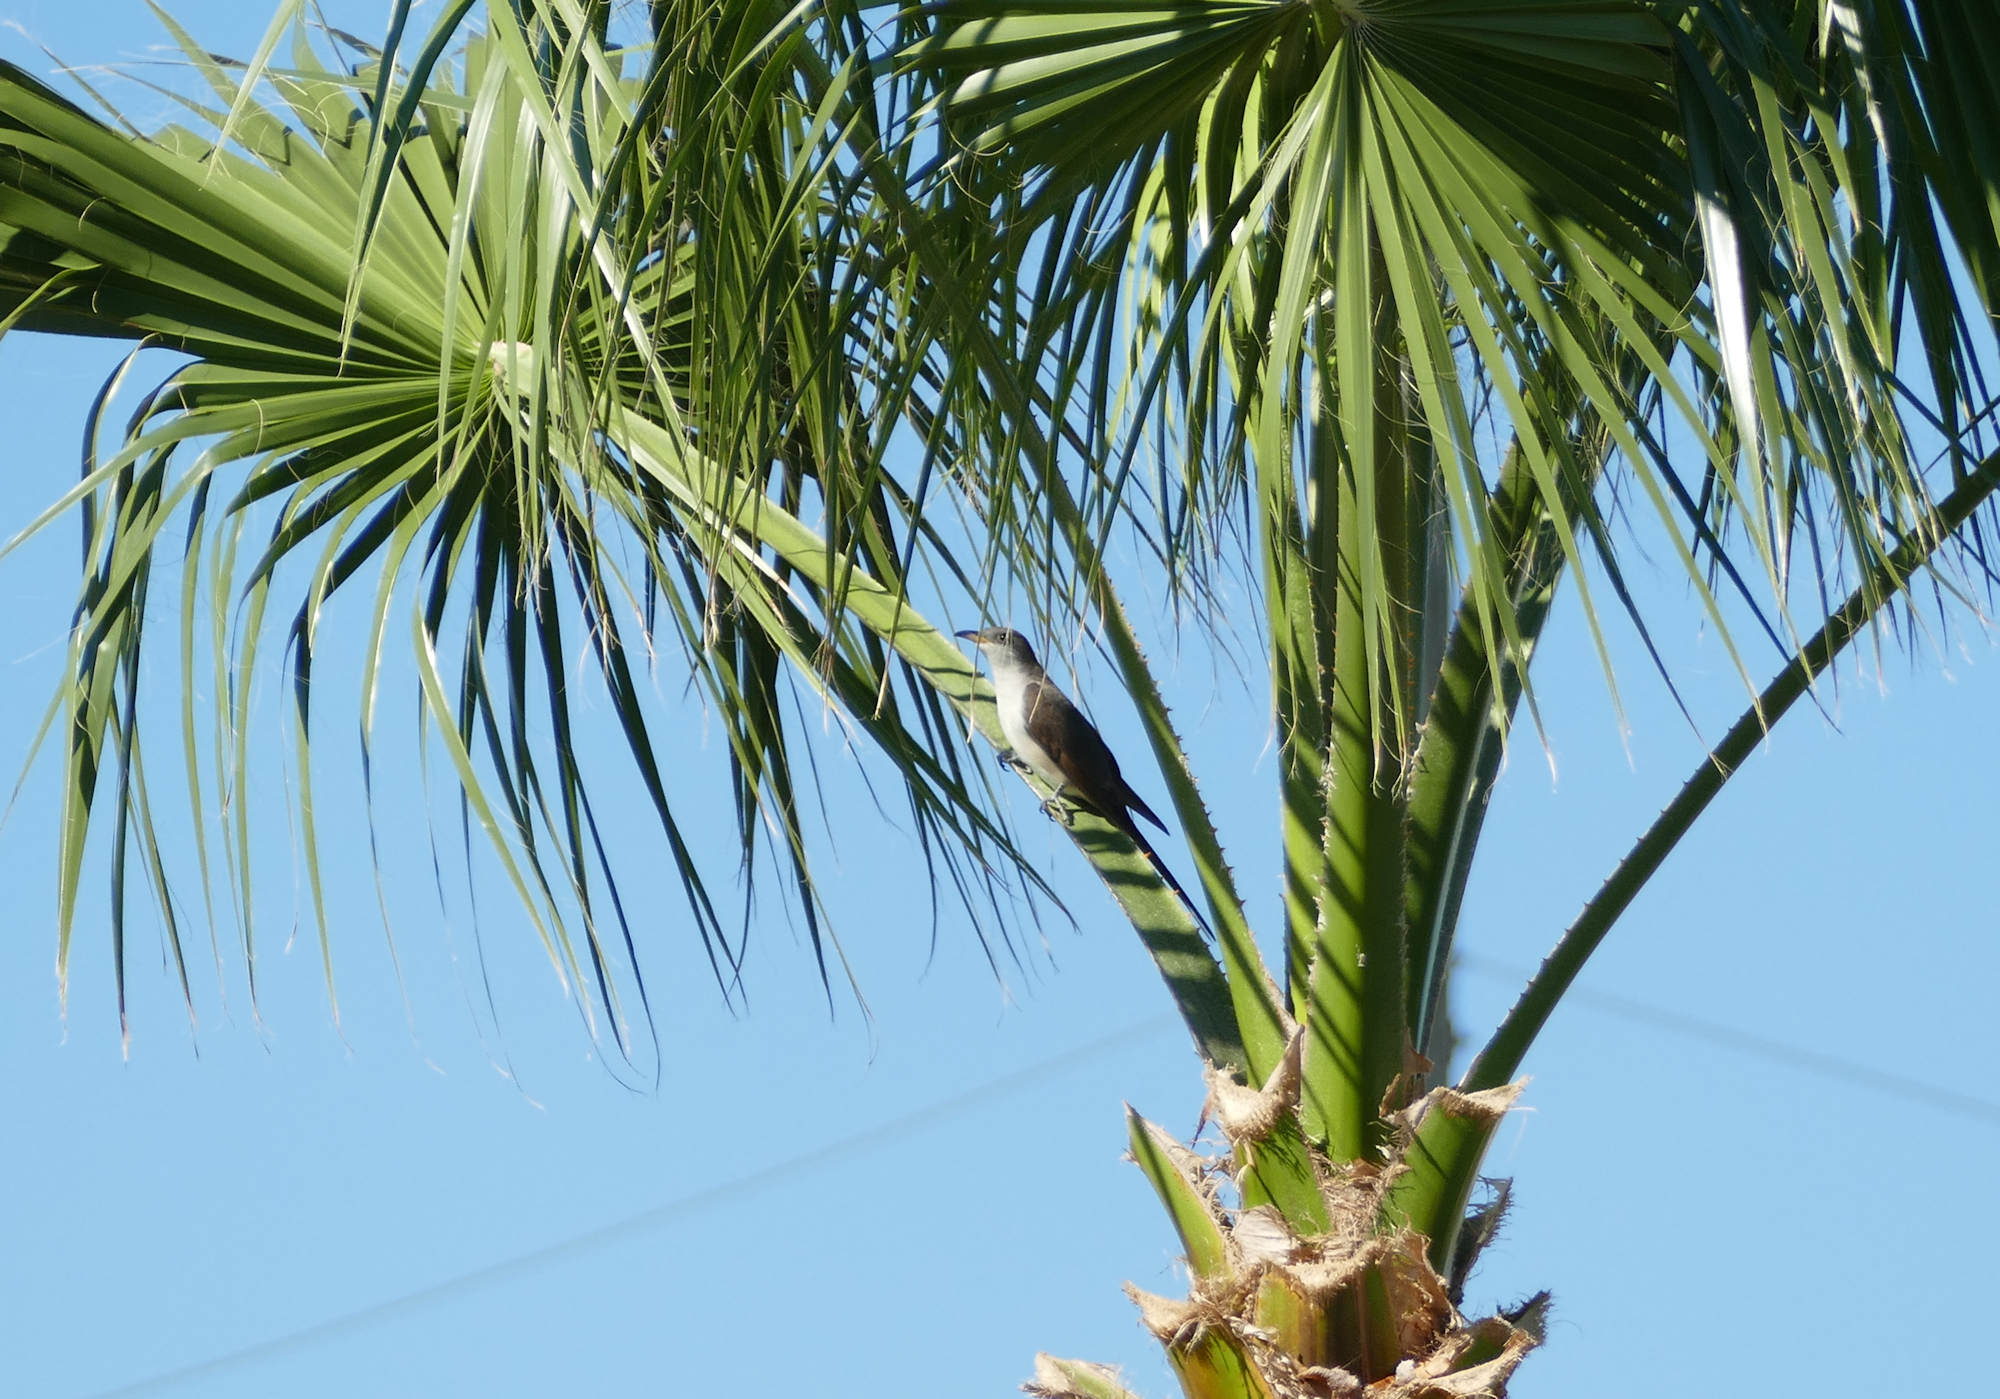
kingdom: Animalia
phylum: Chordata
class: Aves
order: Cuculiformes
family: Cuculidae
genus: Coccyzus
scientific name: Coccyzus americanus
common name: Yellow-billed cuckoo
